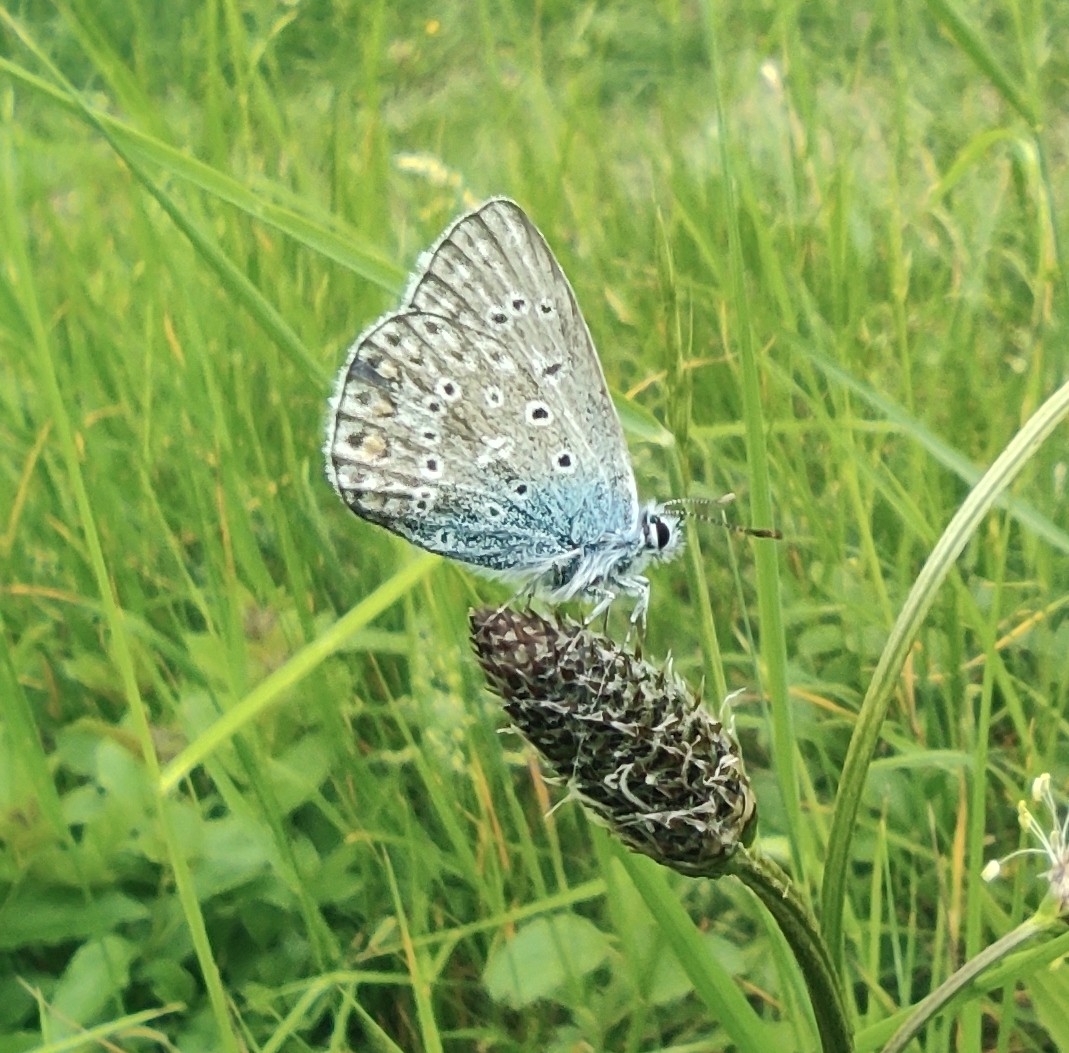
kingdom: Animalia
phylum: Arthropoda
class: Insecta
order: Lepidoptera
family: Lycaenidae
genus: Polyommatus
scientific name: Polyommatus icarus
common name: Common blue
